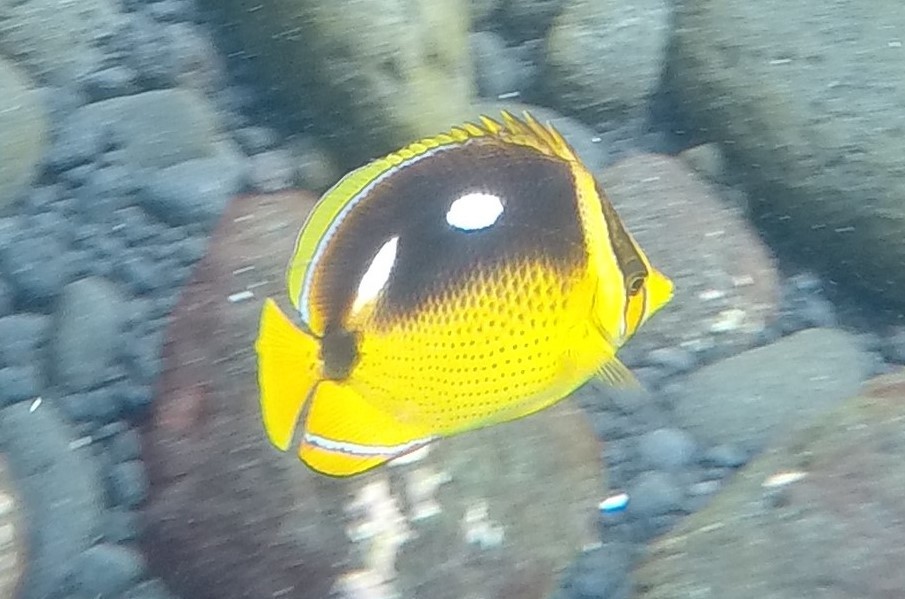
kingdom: Animalia
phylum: Chordata
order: Perciformes
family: Chaetodontidae
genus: Chaetodon
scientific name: Chaetodon quadrimaculatus
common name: Fourspot butterflyfish
